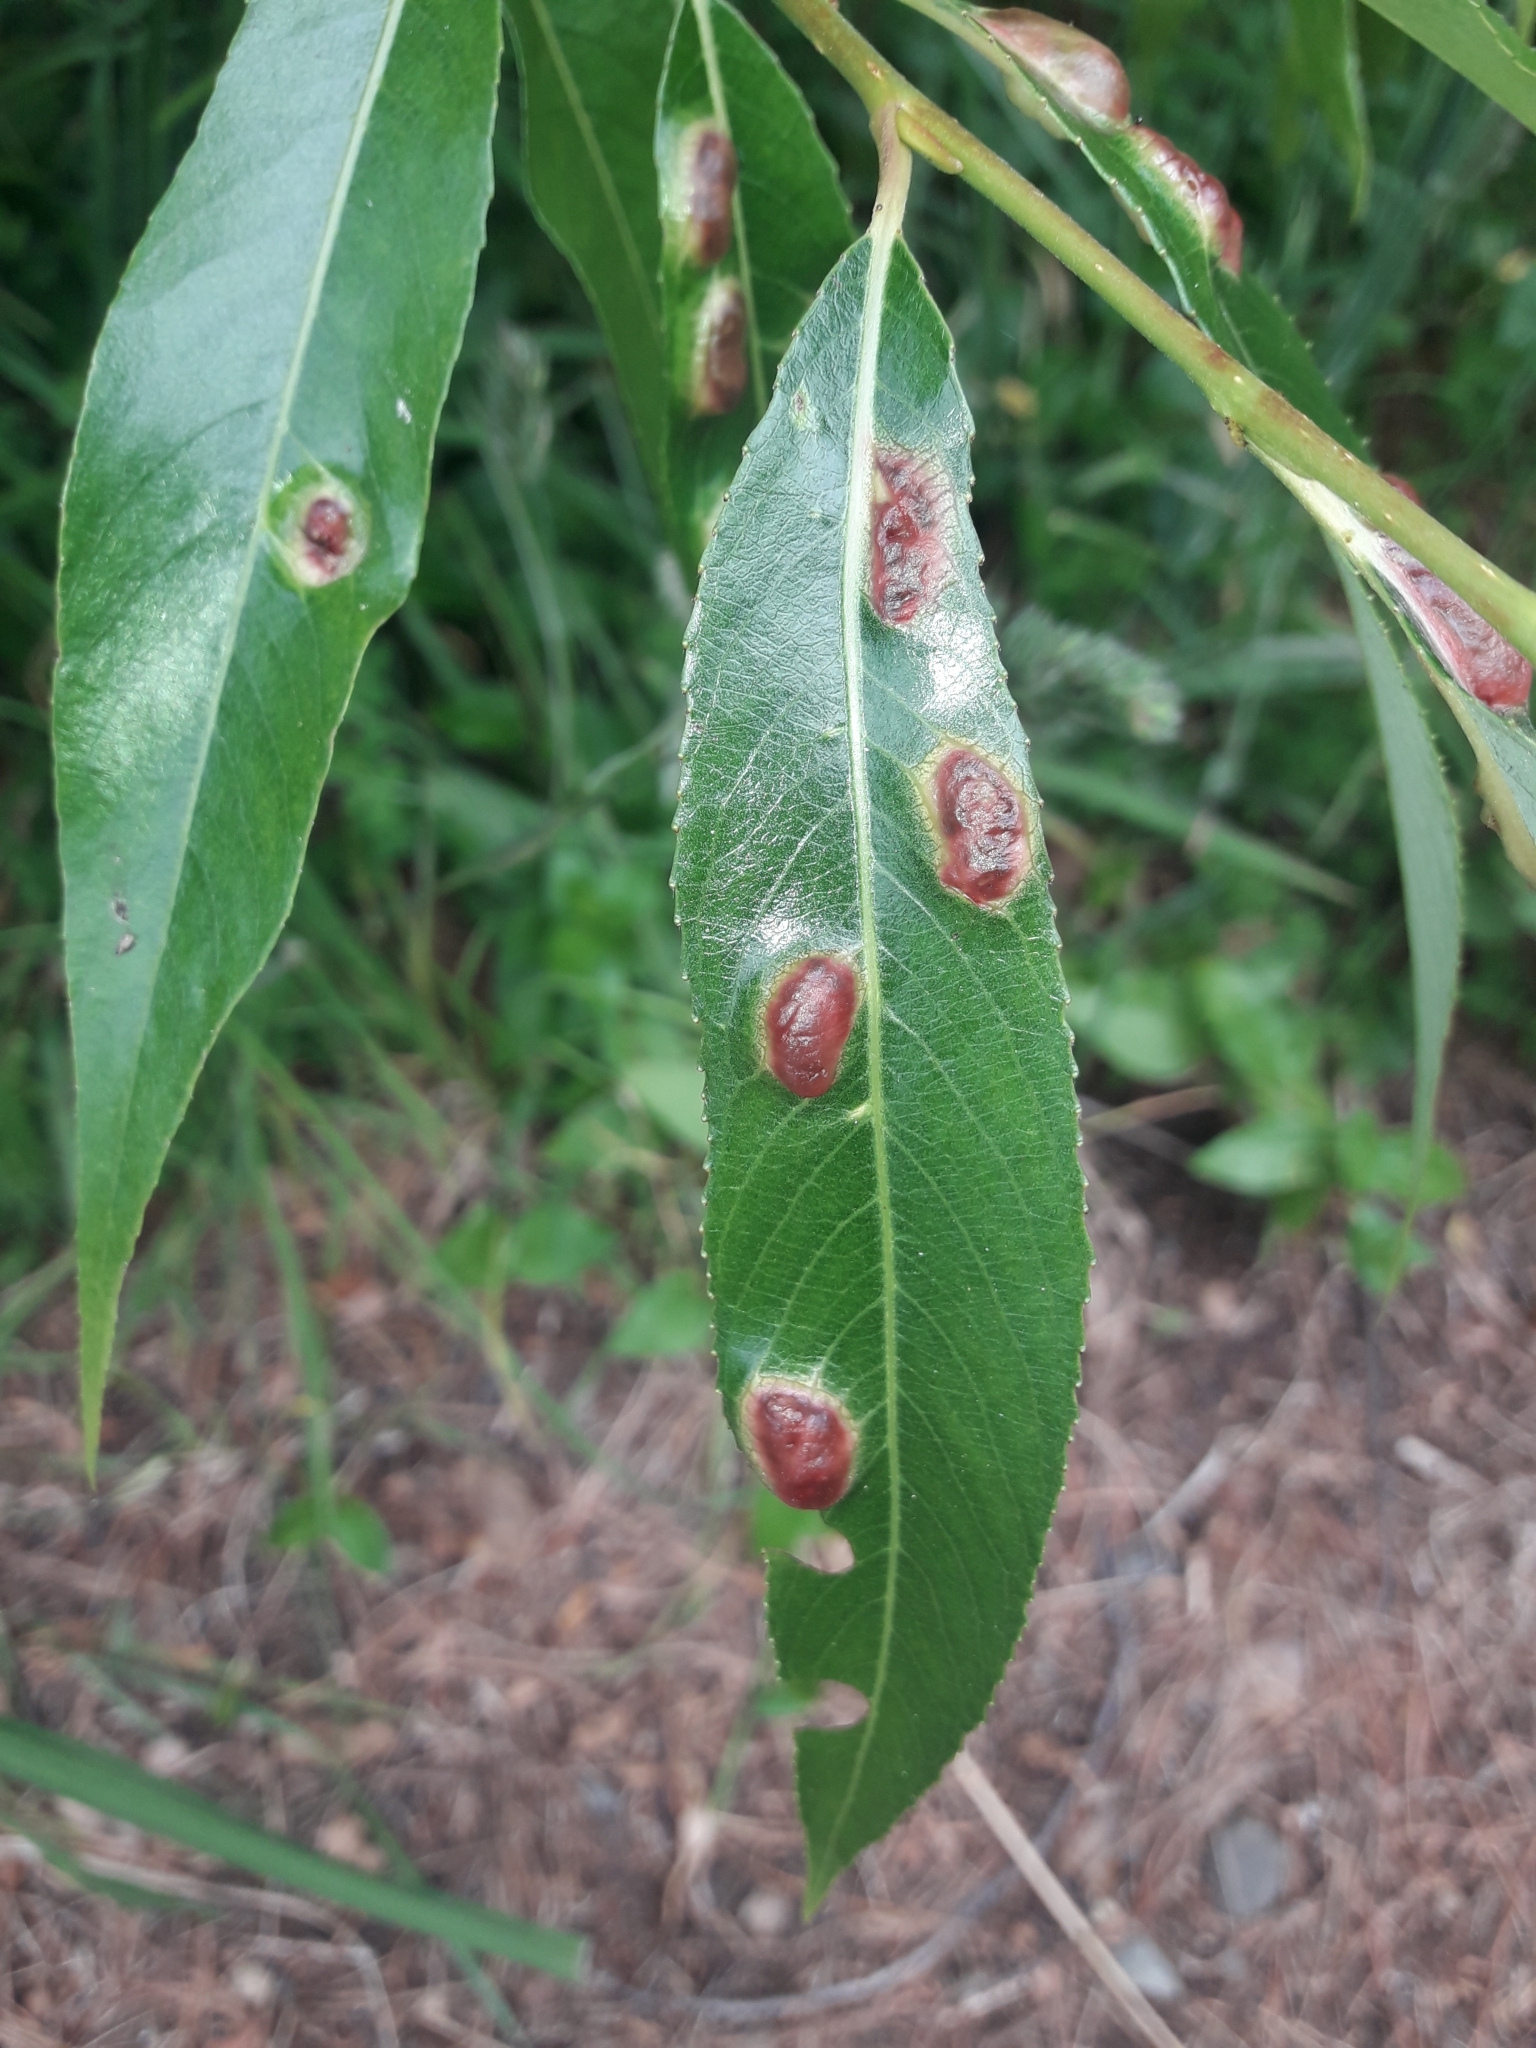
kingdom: Animalia
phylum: Arthropoda
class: Insecta
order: Hymenoptera
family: Tenthredinidae
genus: Pontania
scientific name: Pontania proxima
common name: Common sawfly
